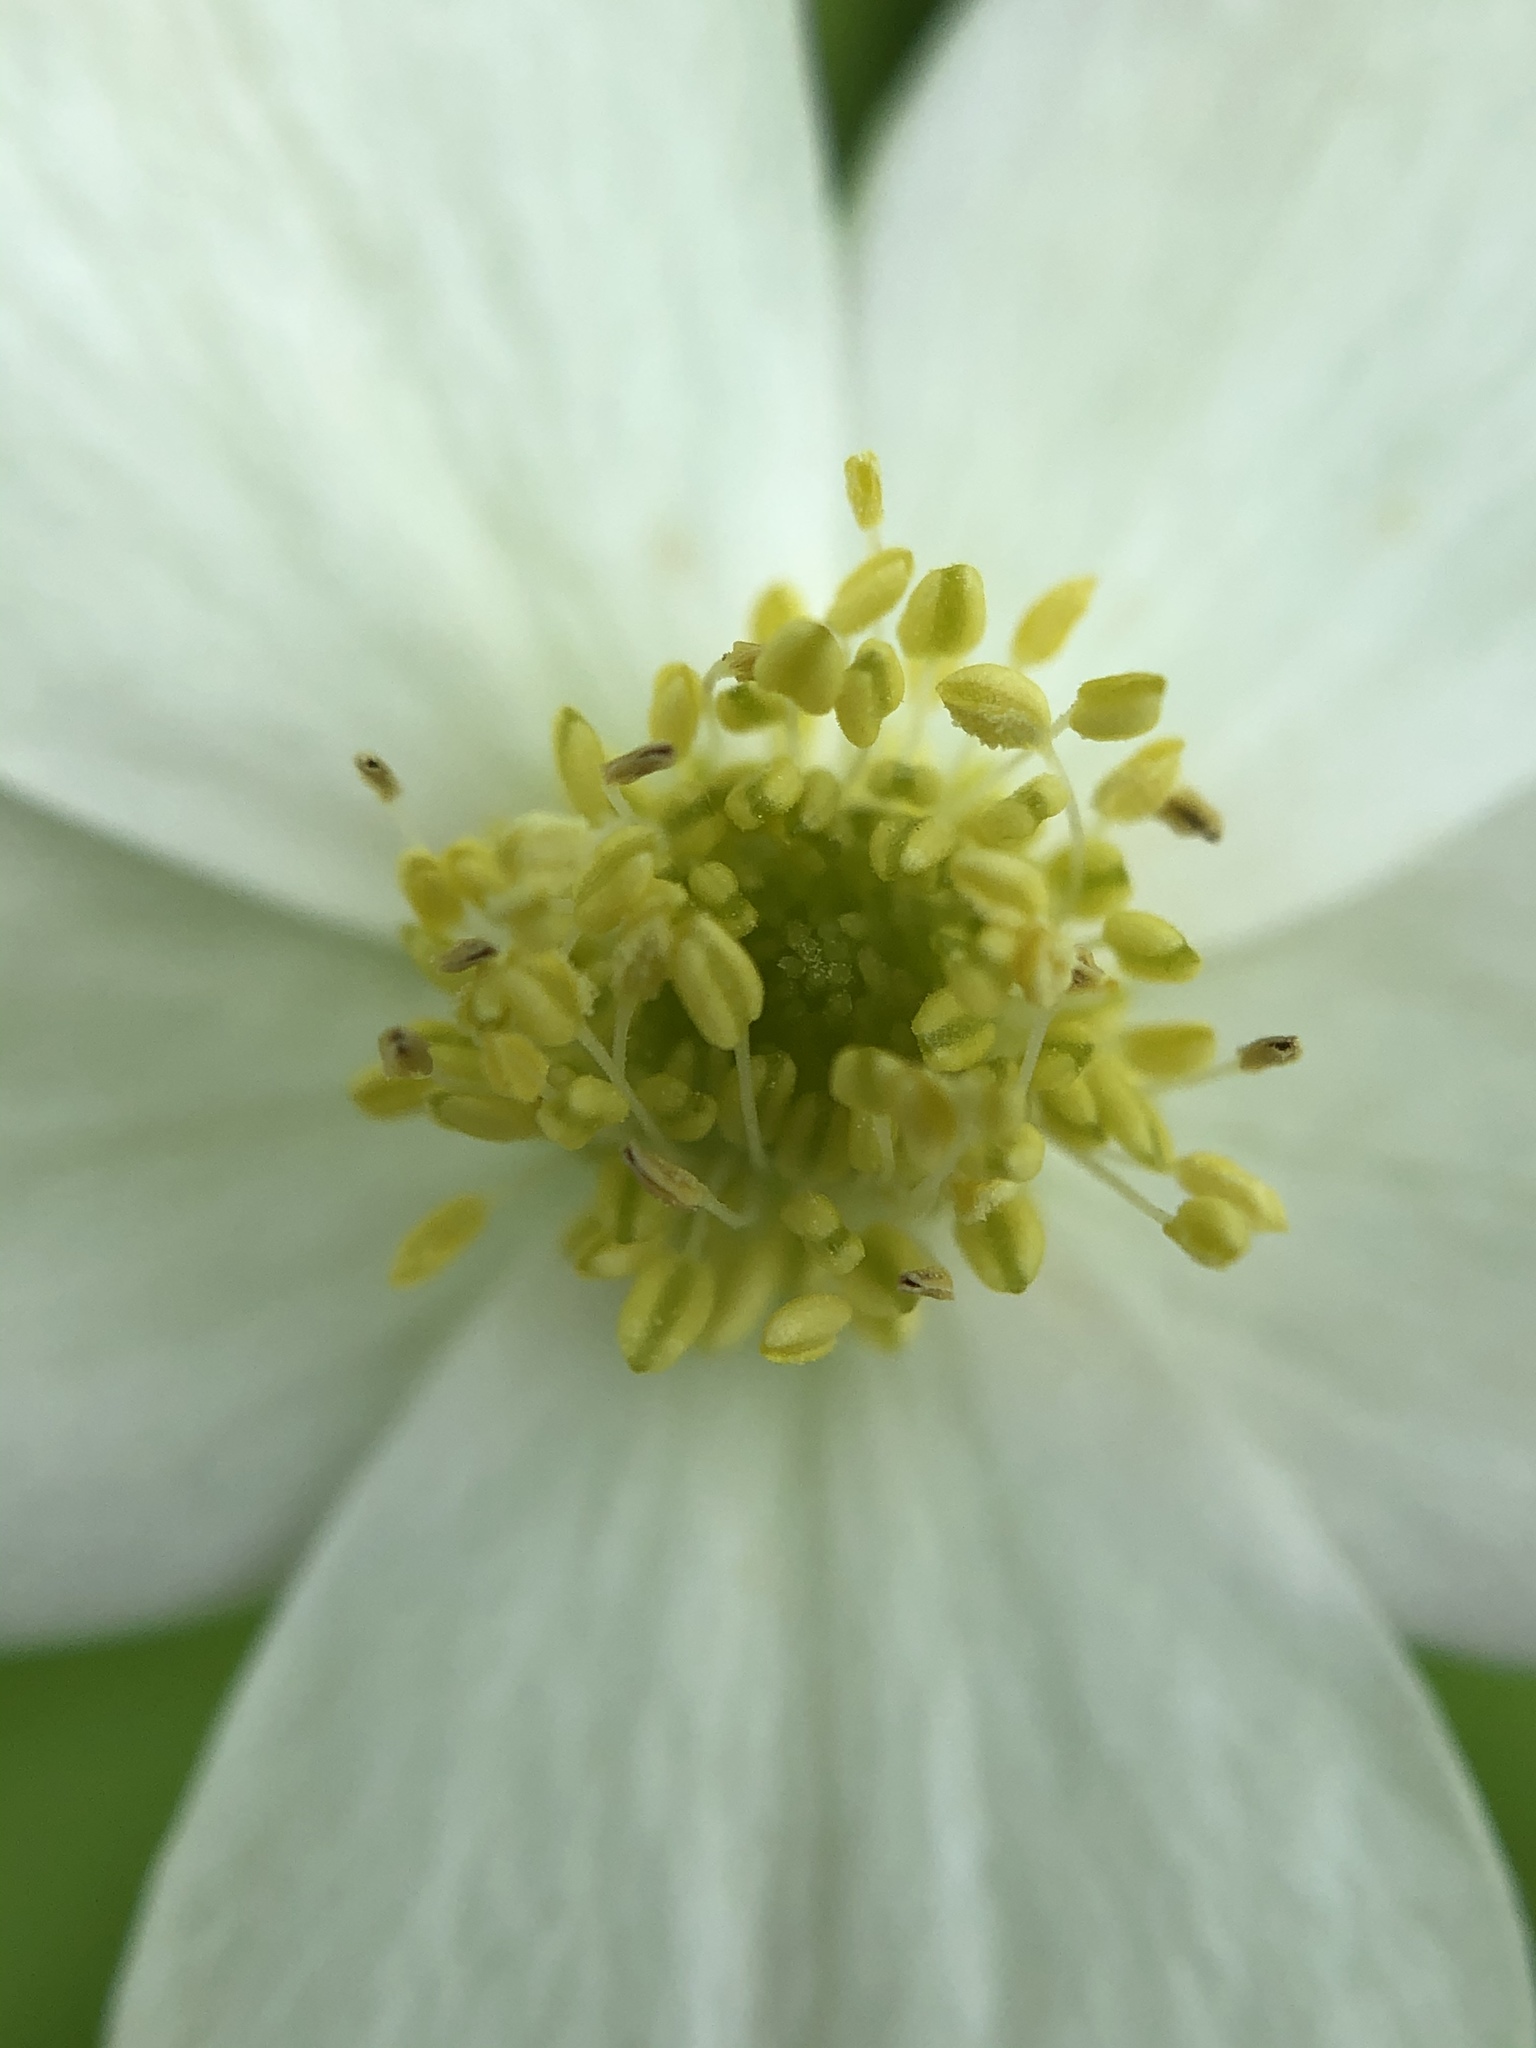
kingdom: Plantae
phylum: Tracheophyta
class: Magnoliopsida
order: Ranunculales
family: Ranunculaceae
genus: Anemonastrum
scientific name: Anemonastrum canadense
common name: Canada anemone
